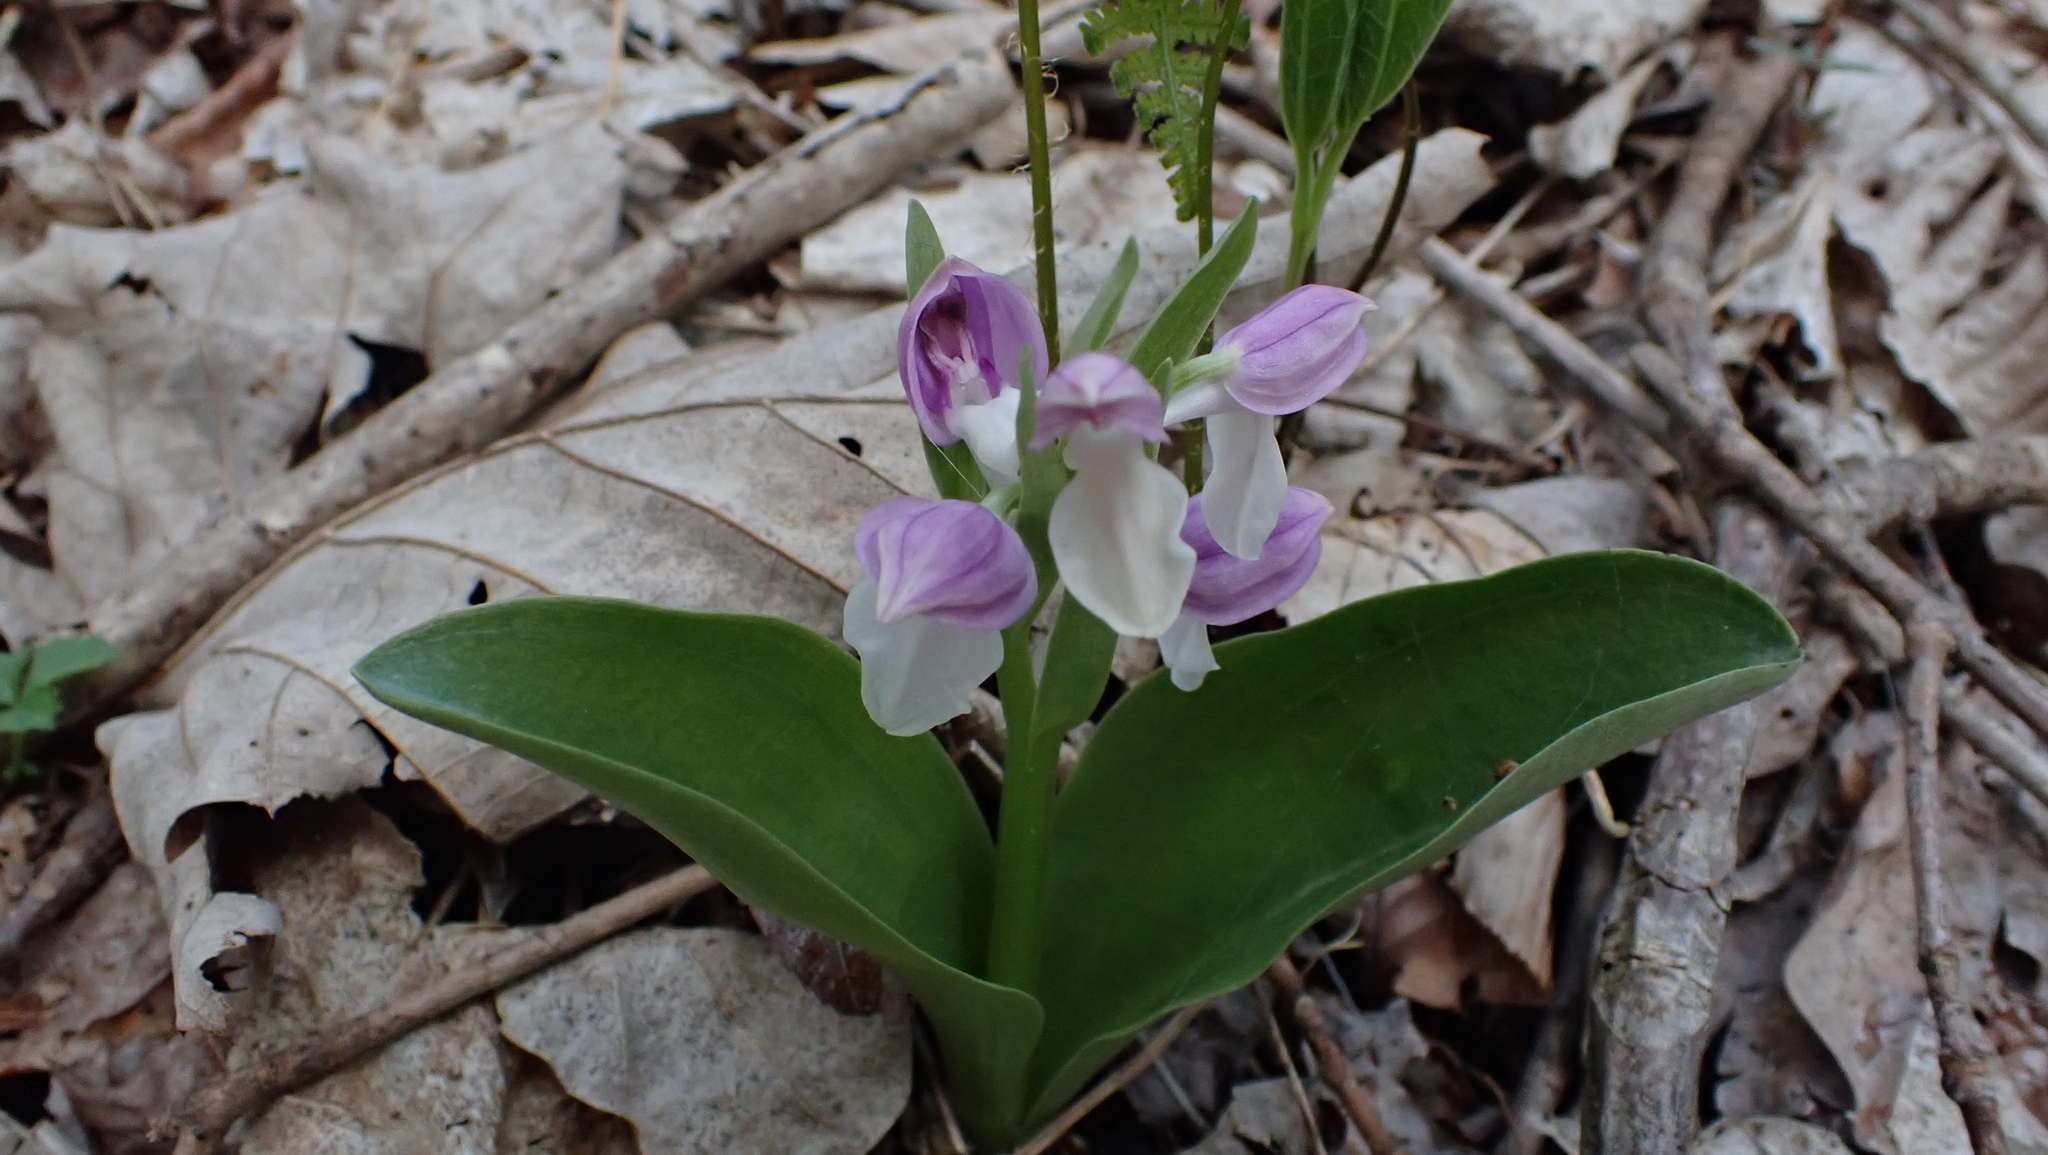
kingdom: Plantae
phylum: Tracheophyta
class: Liliopsida
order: Asparagales
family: Orchidaceae
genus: Galearis
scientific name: Galearis spectabilis
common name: Purple-hooded orchis
